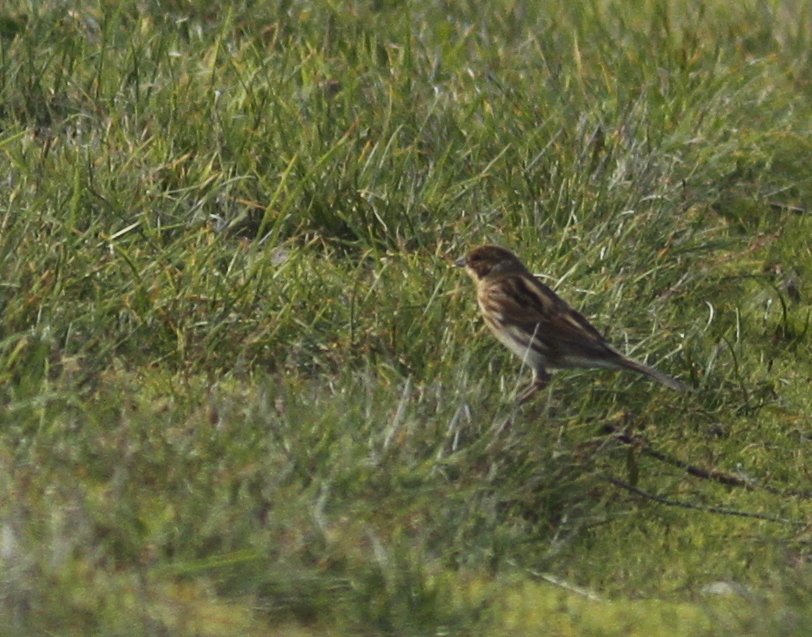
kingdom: Animalia
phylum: Chordata
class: Aves
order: Passeriformes
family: Emberizidae
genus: Emberiza
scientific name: Emberiza schoeniclus
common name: Reed bunting
